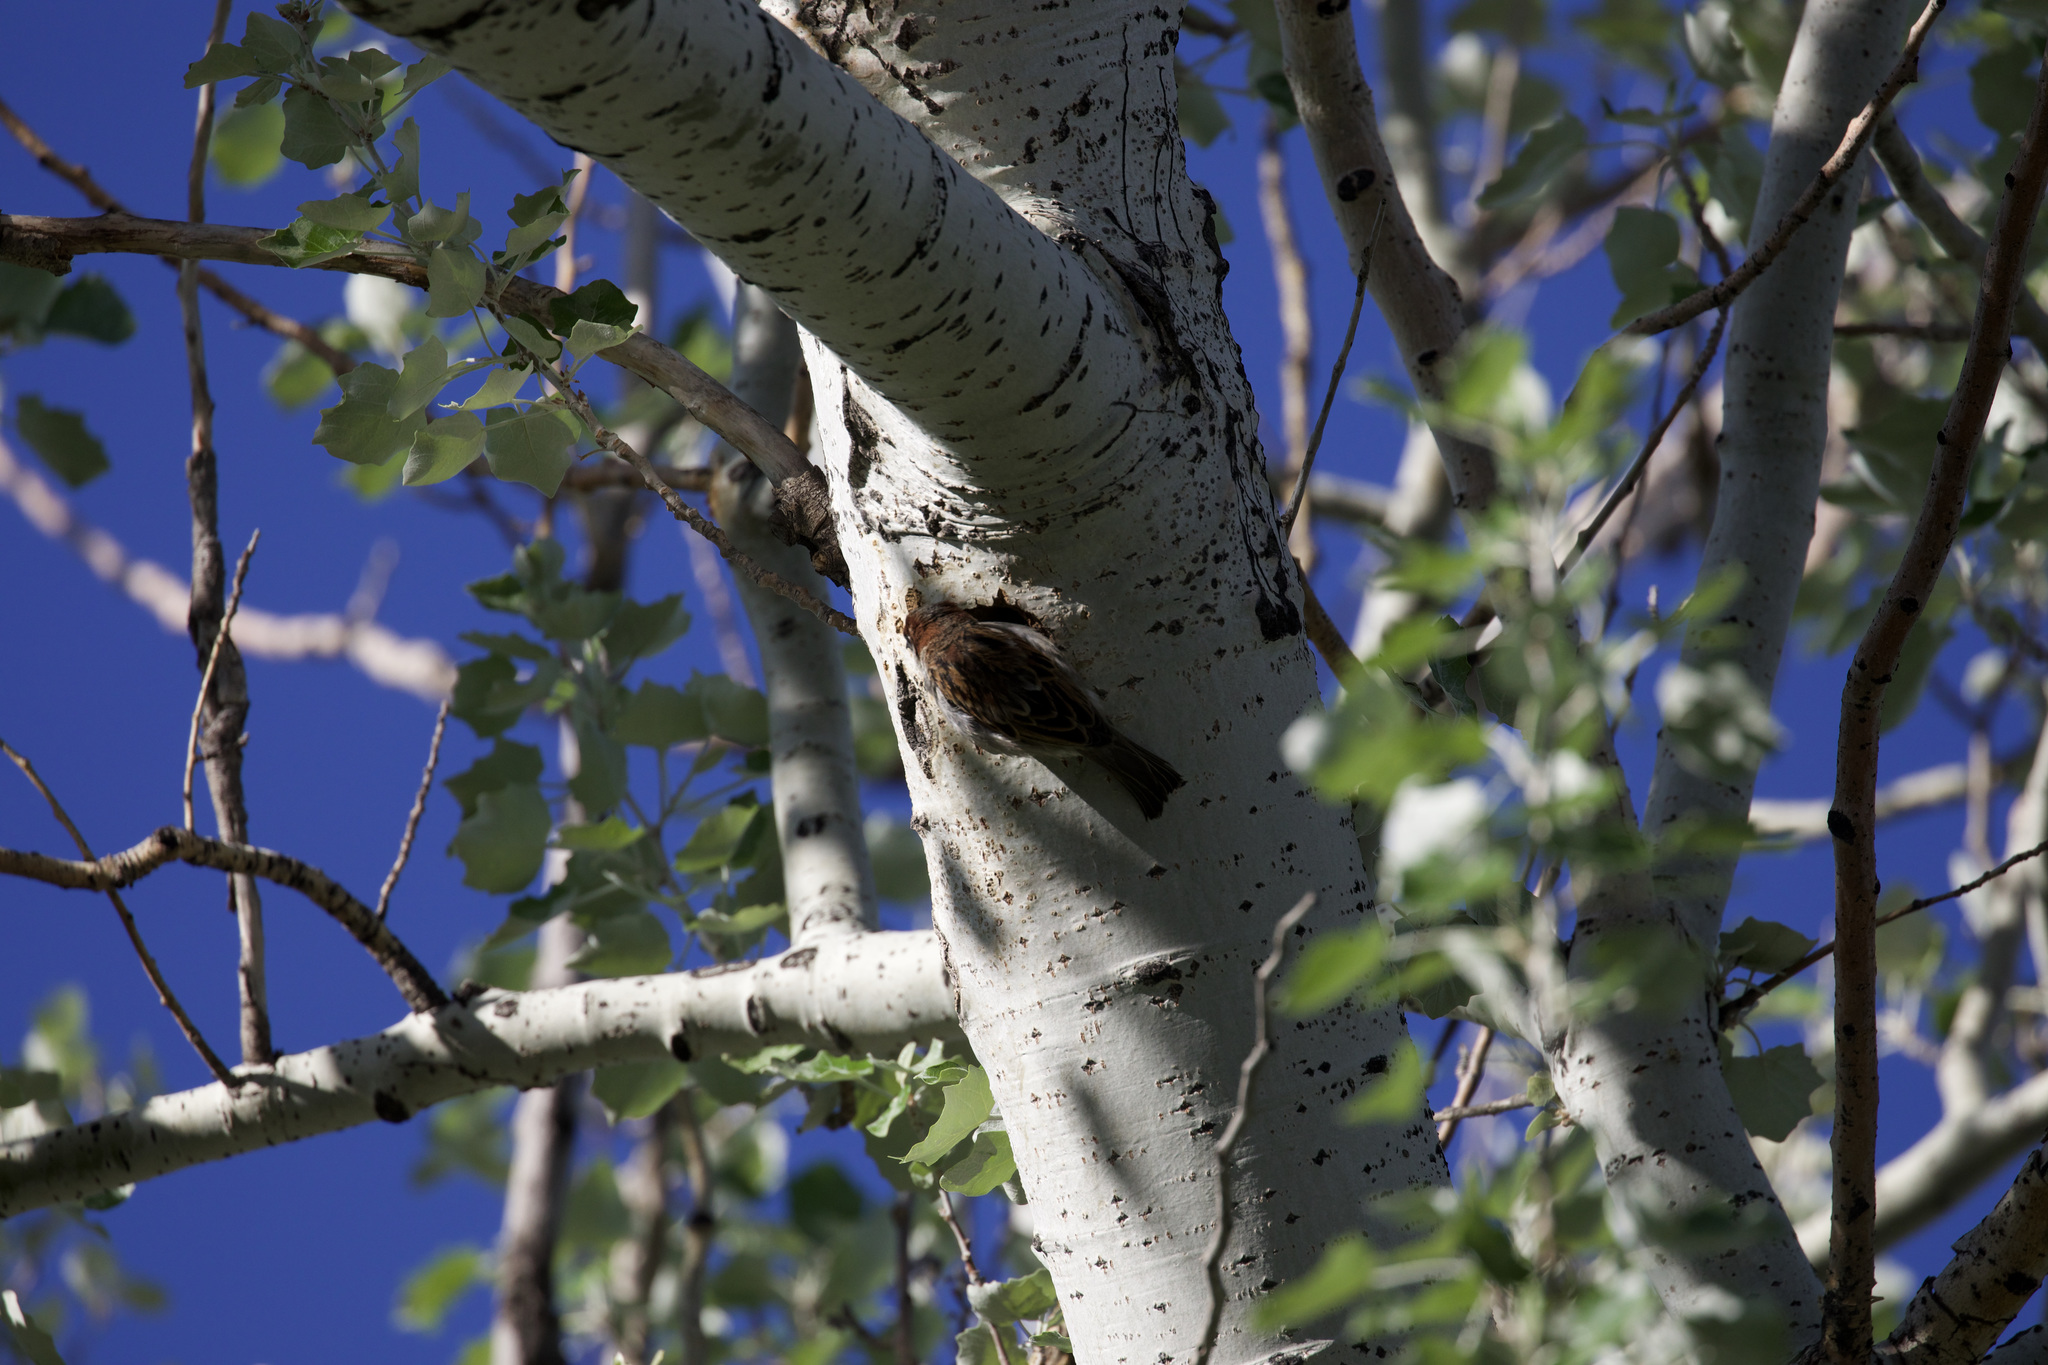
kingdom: Animalia
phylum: Chordata
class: Aves
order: Passeriformes
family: Passeridae
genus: Passer
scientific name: Passer domesticus
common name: House sparrow
